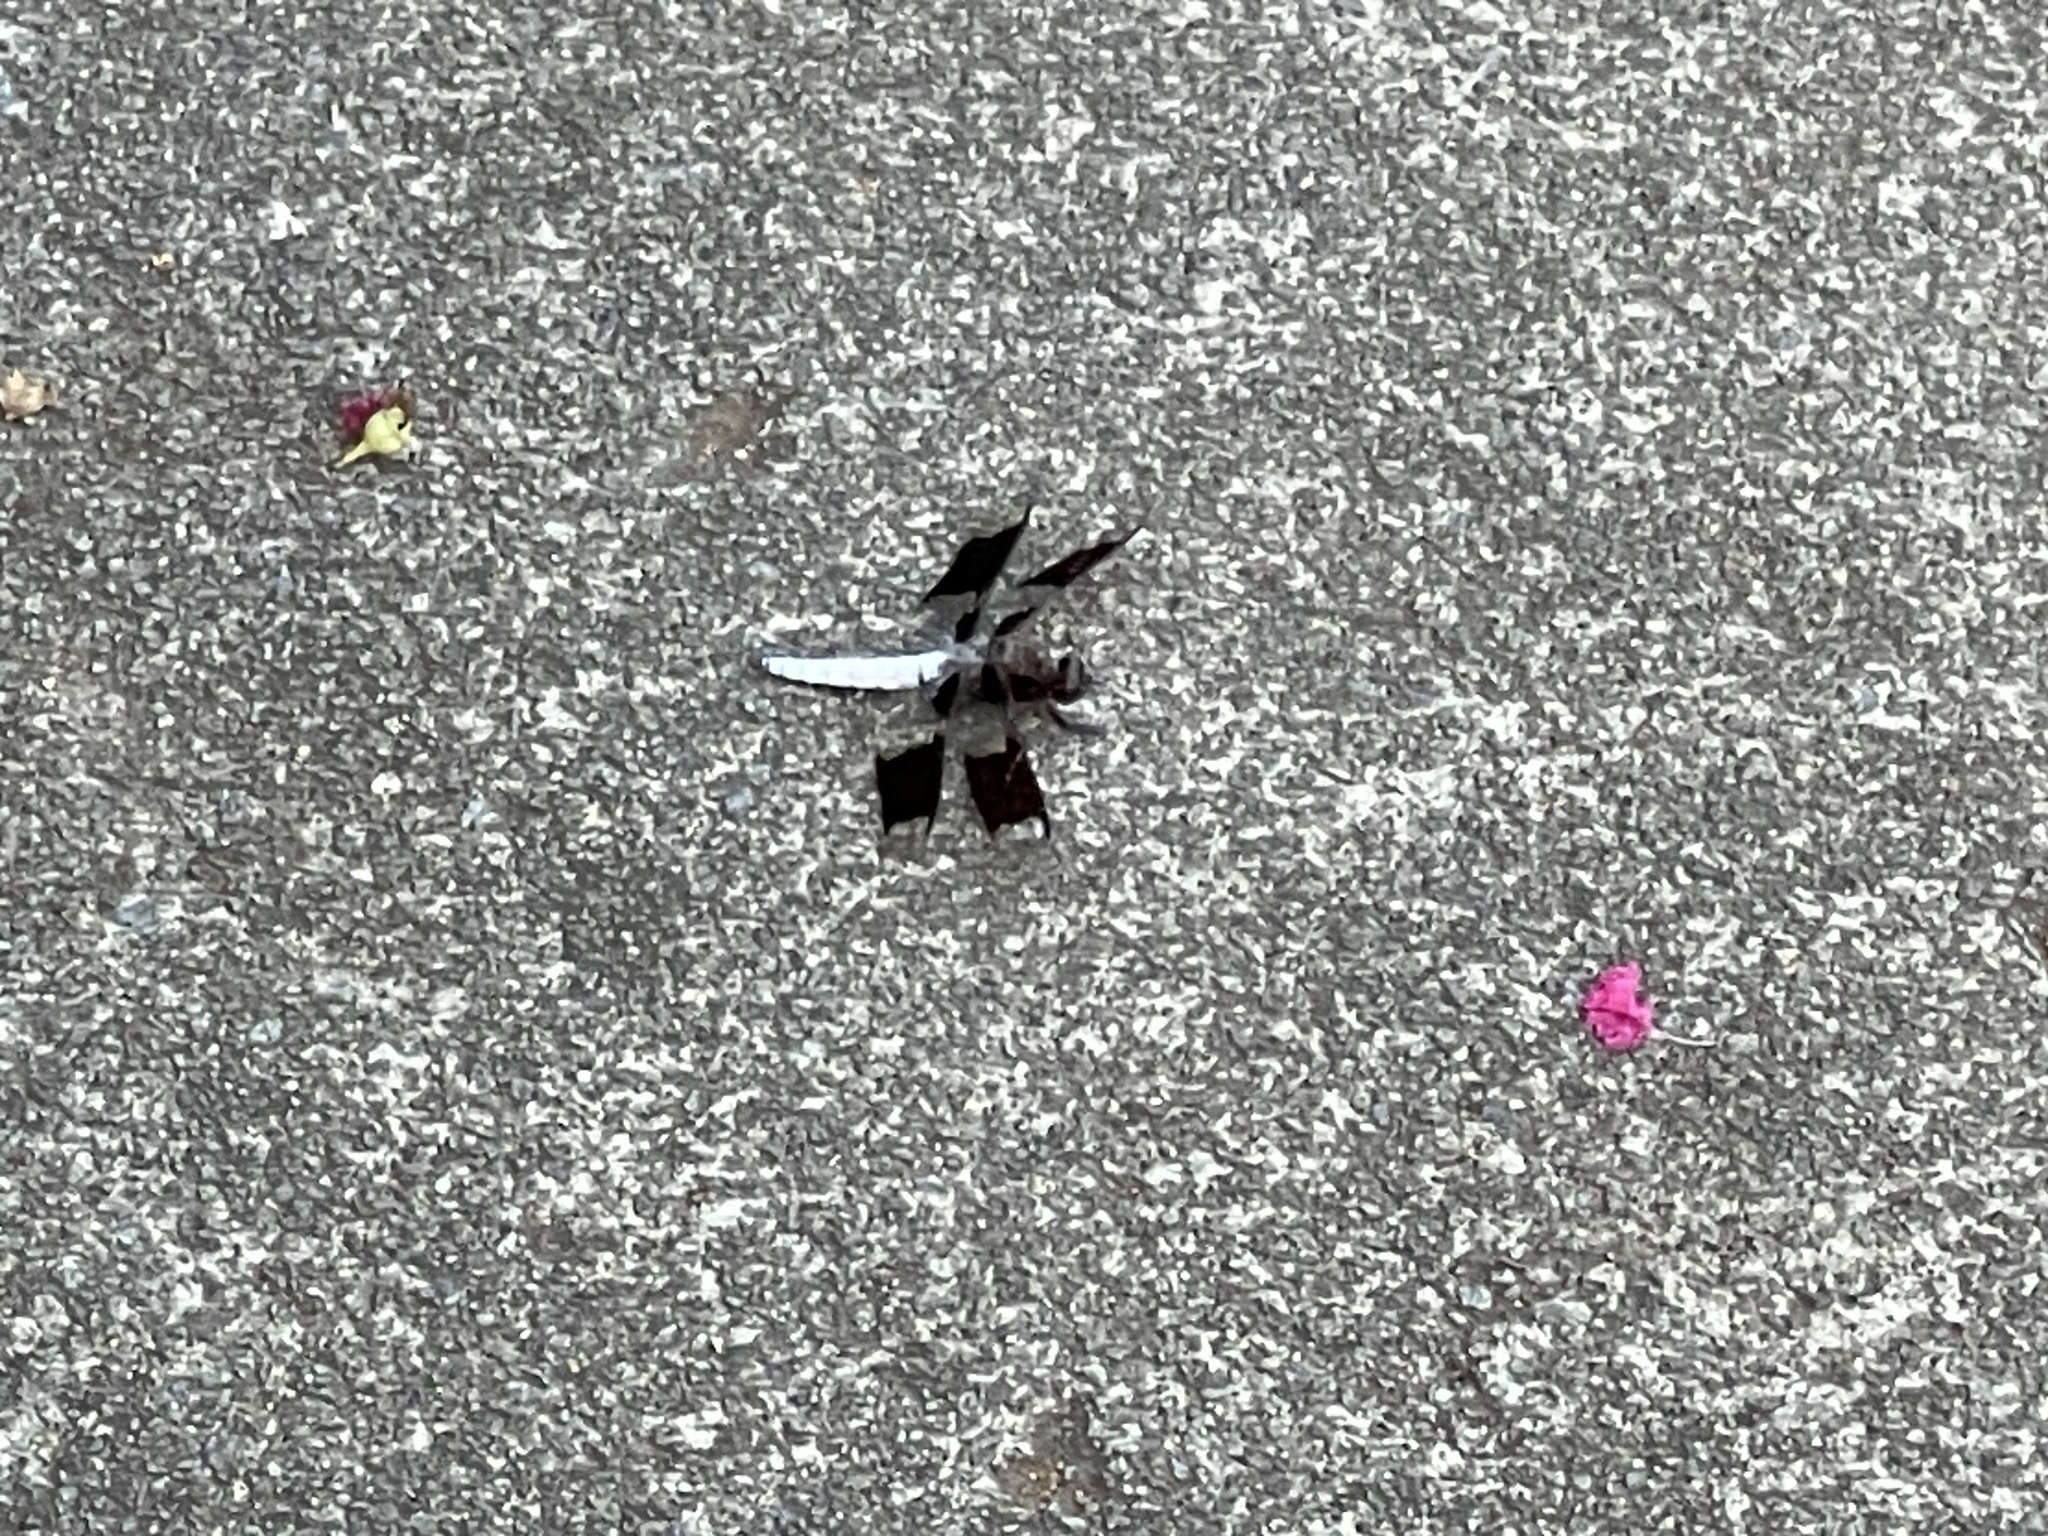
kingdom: Animalia
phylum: Arthropoda
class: Insecta
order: Odonata
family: Libellulidae
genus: Plathemis
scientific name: Plathemis lydia
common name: Common whitetail
